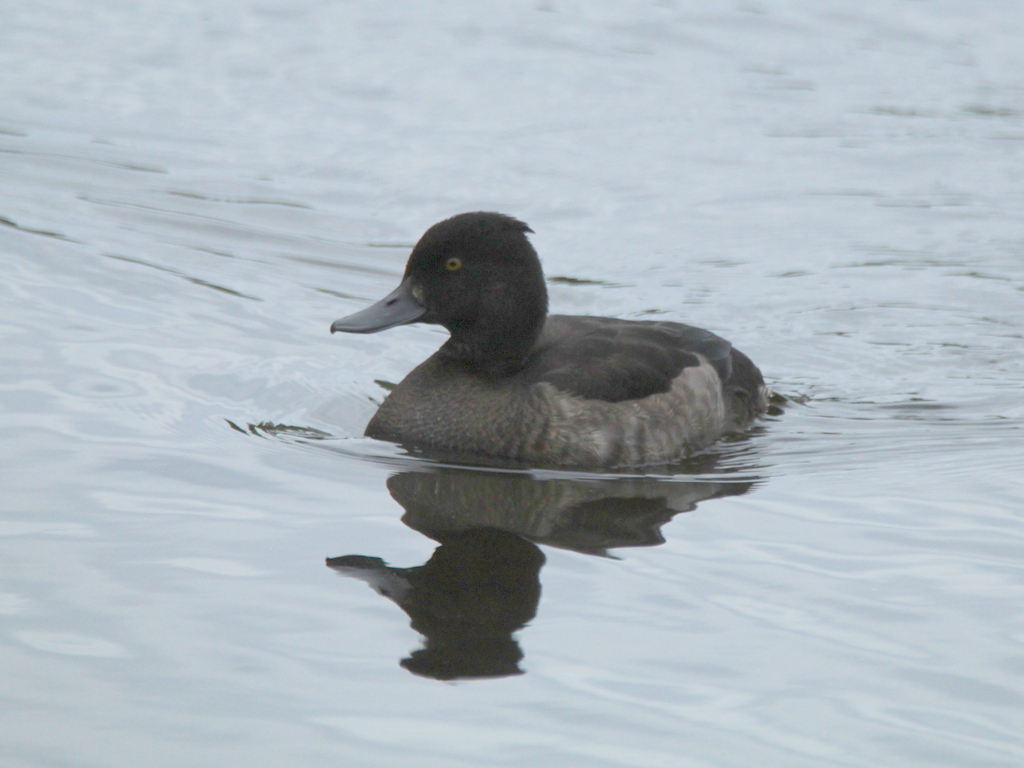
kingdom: Animalia
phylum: Chordata
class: Aves
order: Anseriformes
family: Anatidae
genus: Aythya
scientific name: Aythya fuligula
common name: Tufted duck
